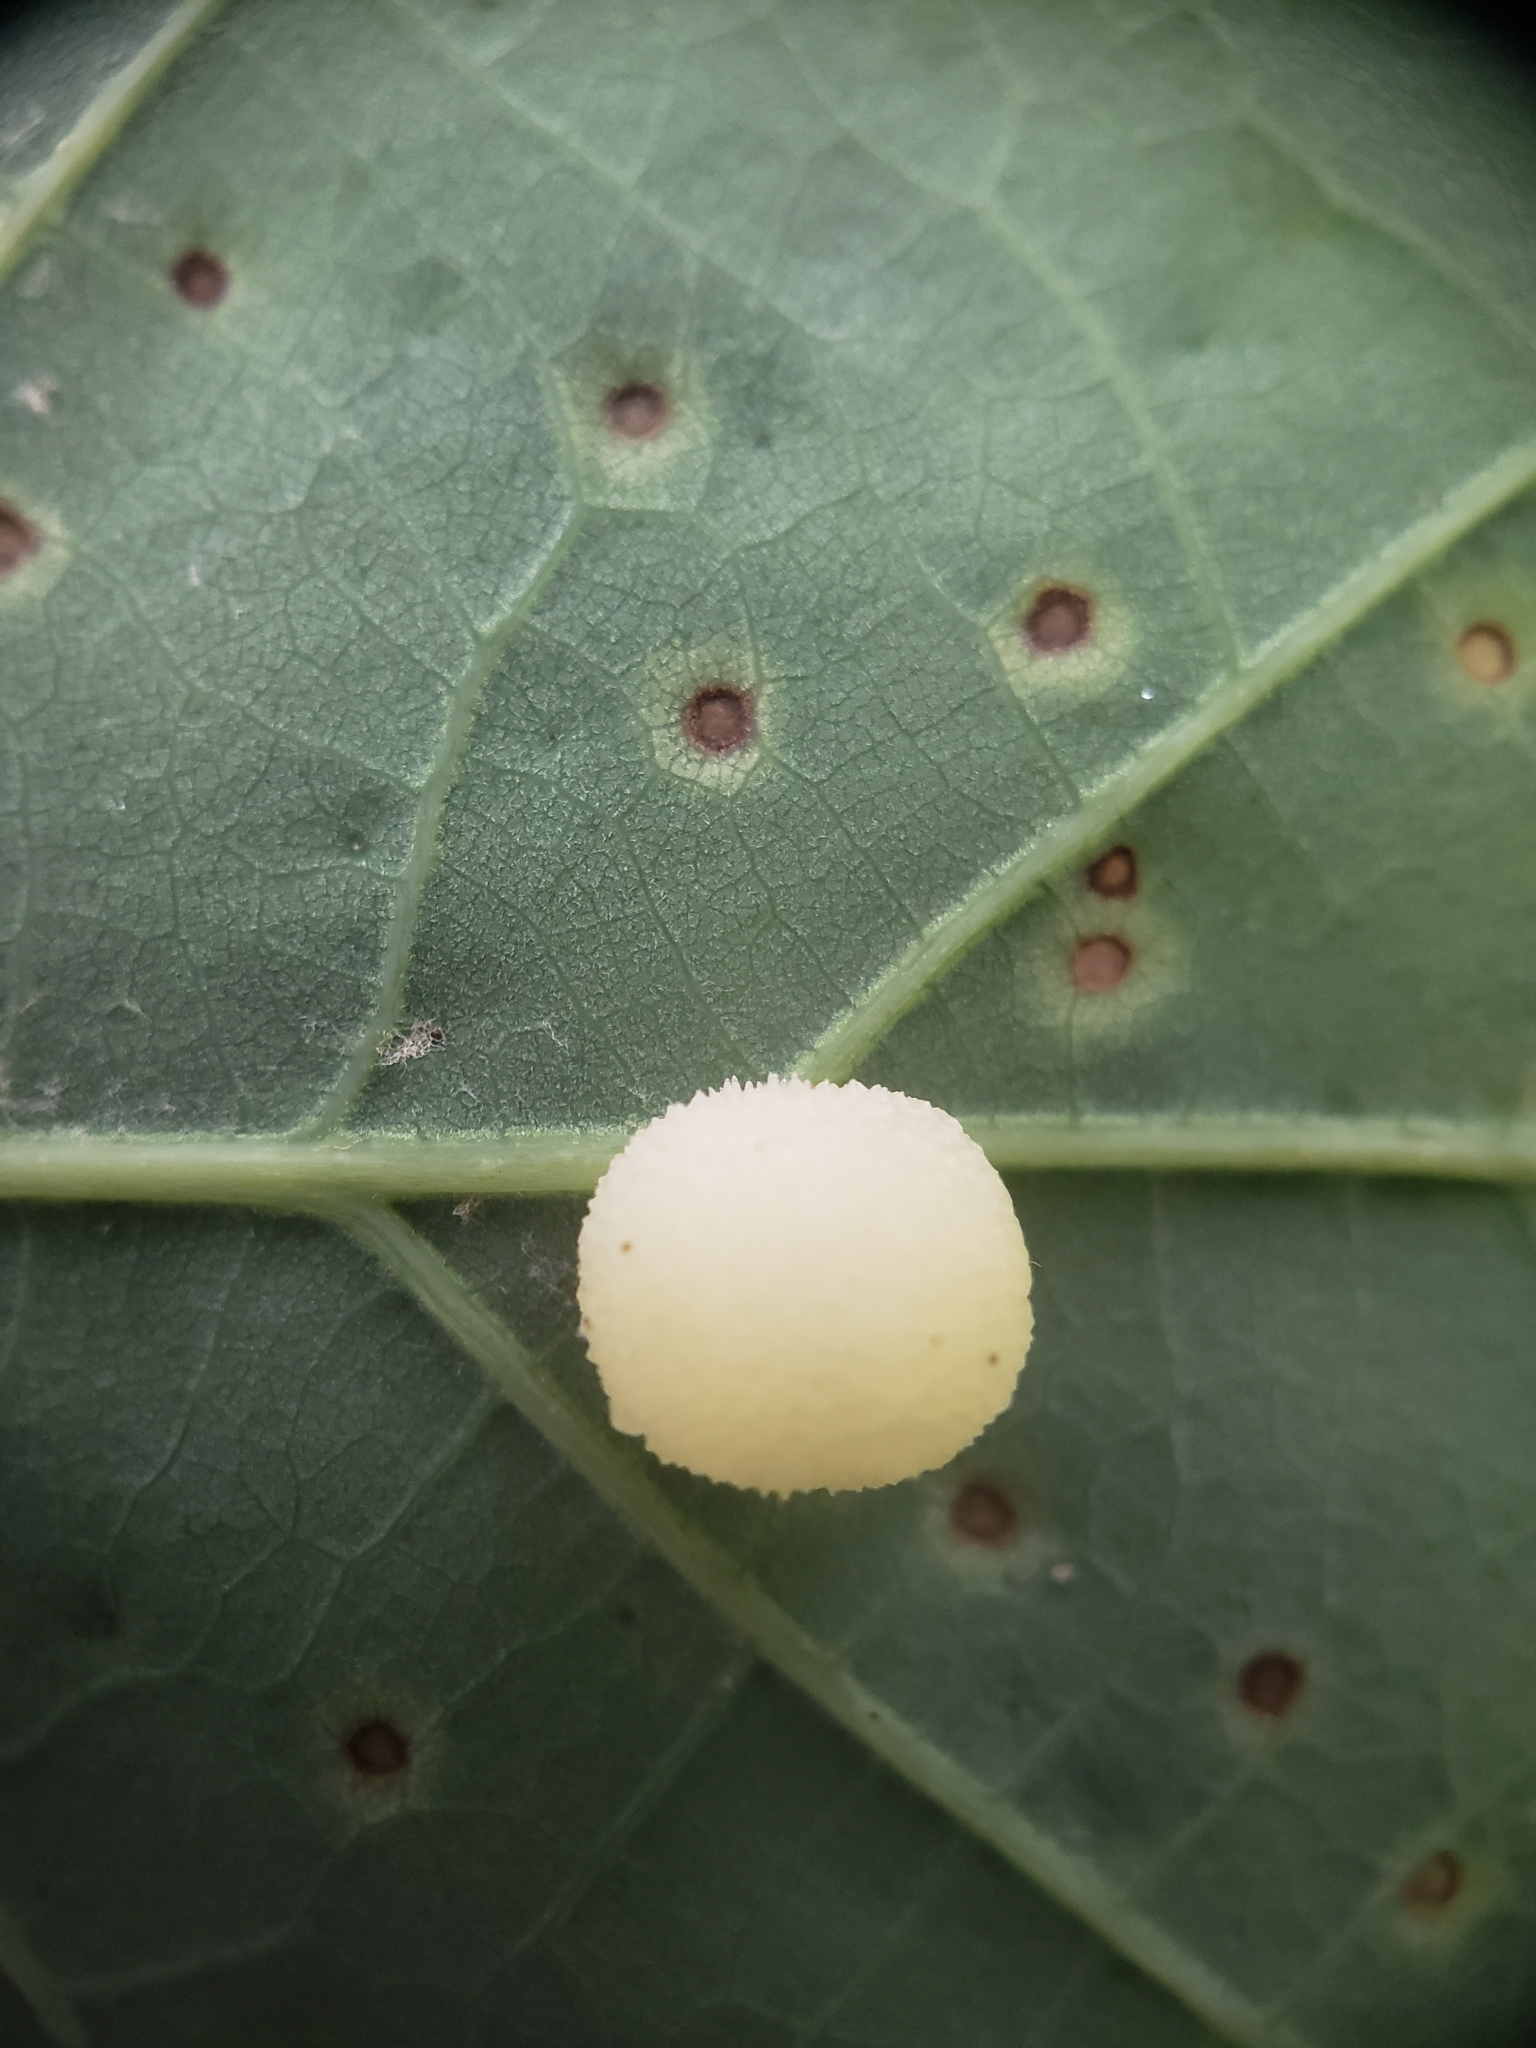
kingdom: Animalia
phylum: Arthropoda
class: Insecta
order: Hymenoptera
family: Cynipidae
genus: Acraspis
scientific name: Acraspis
